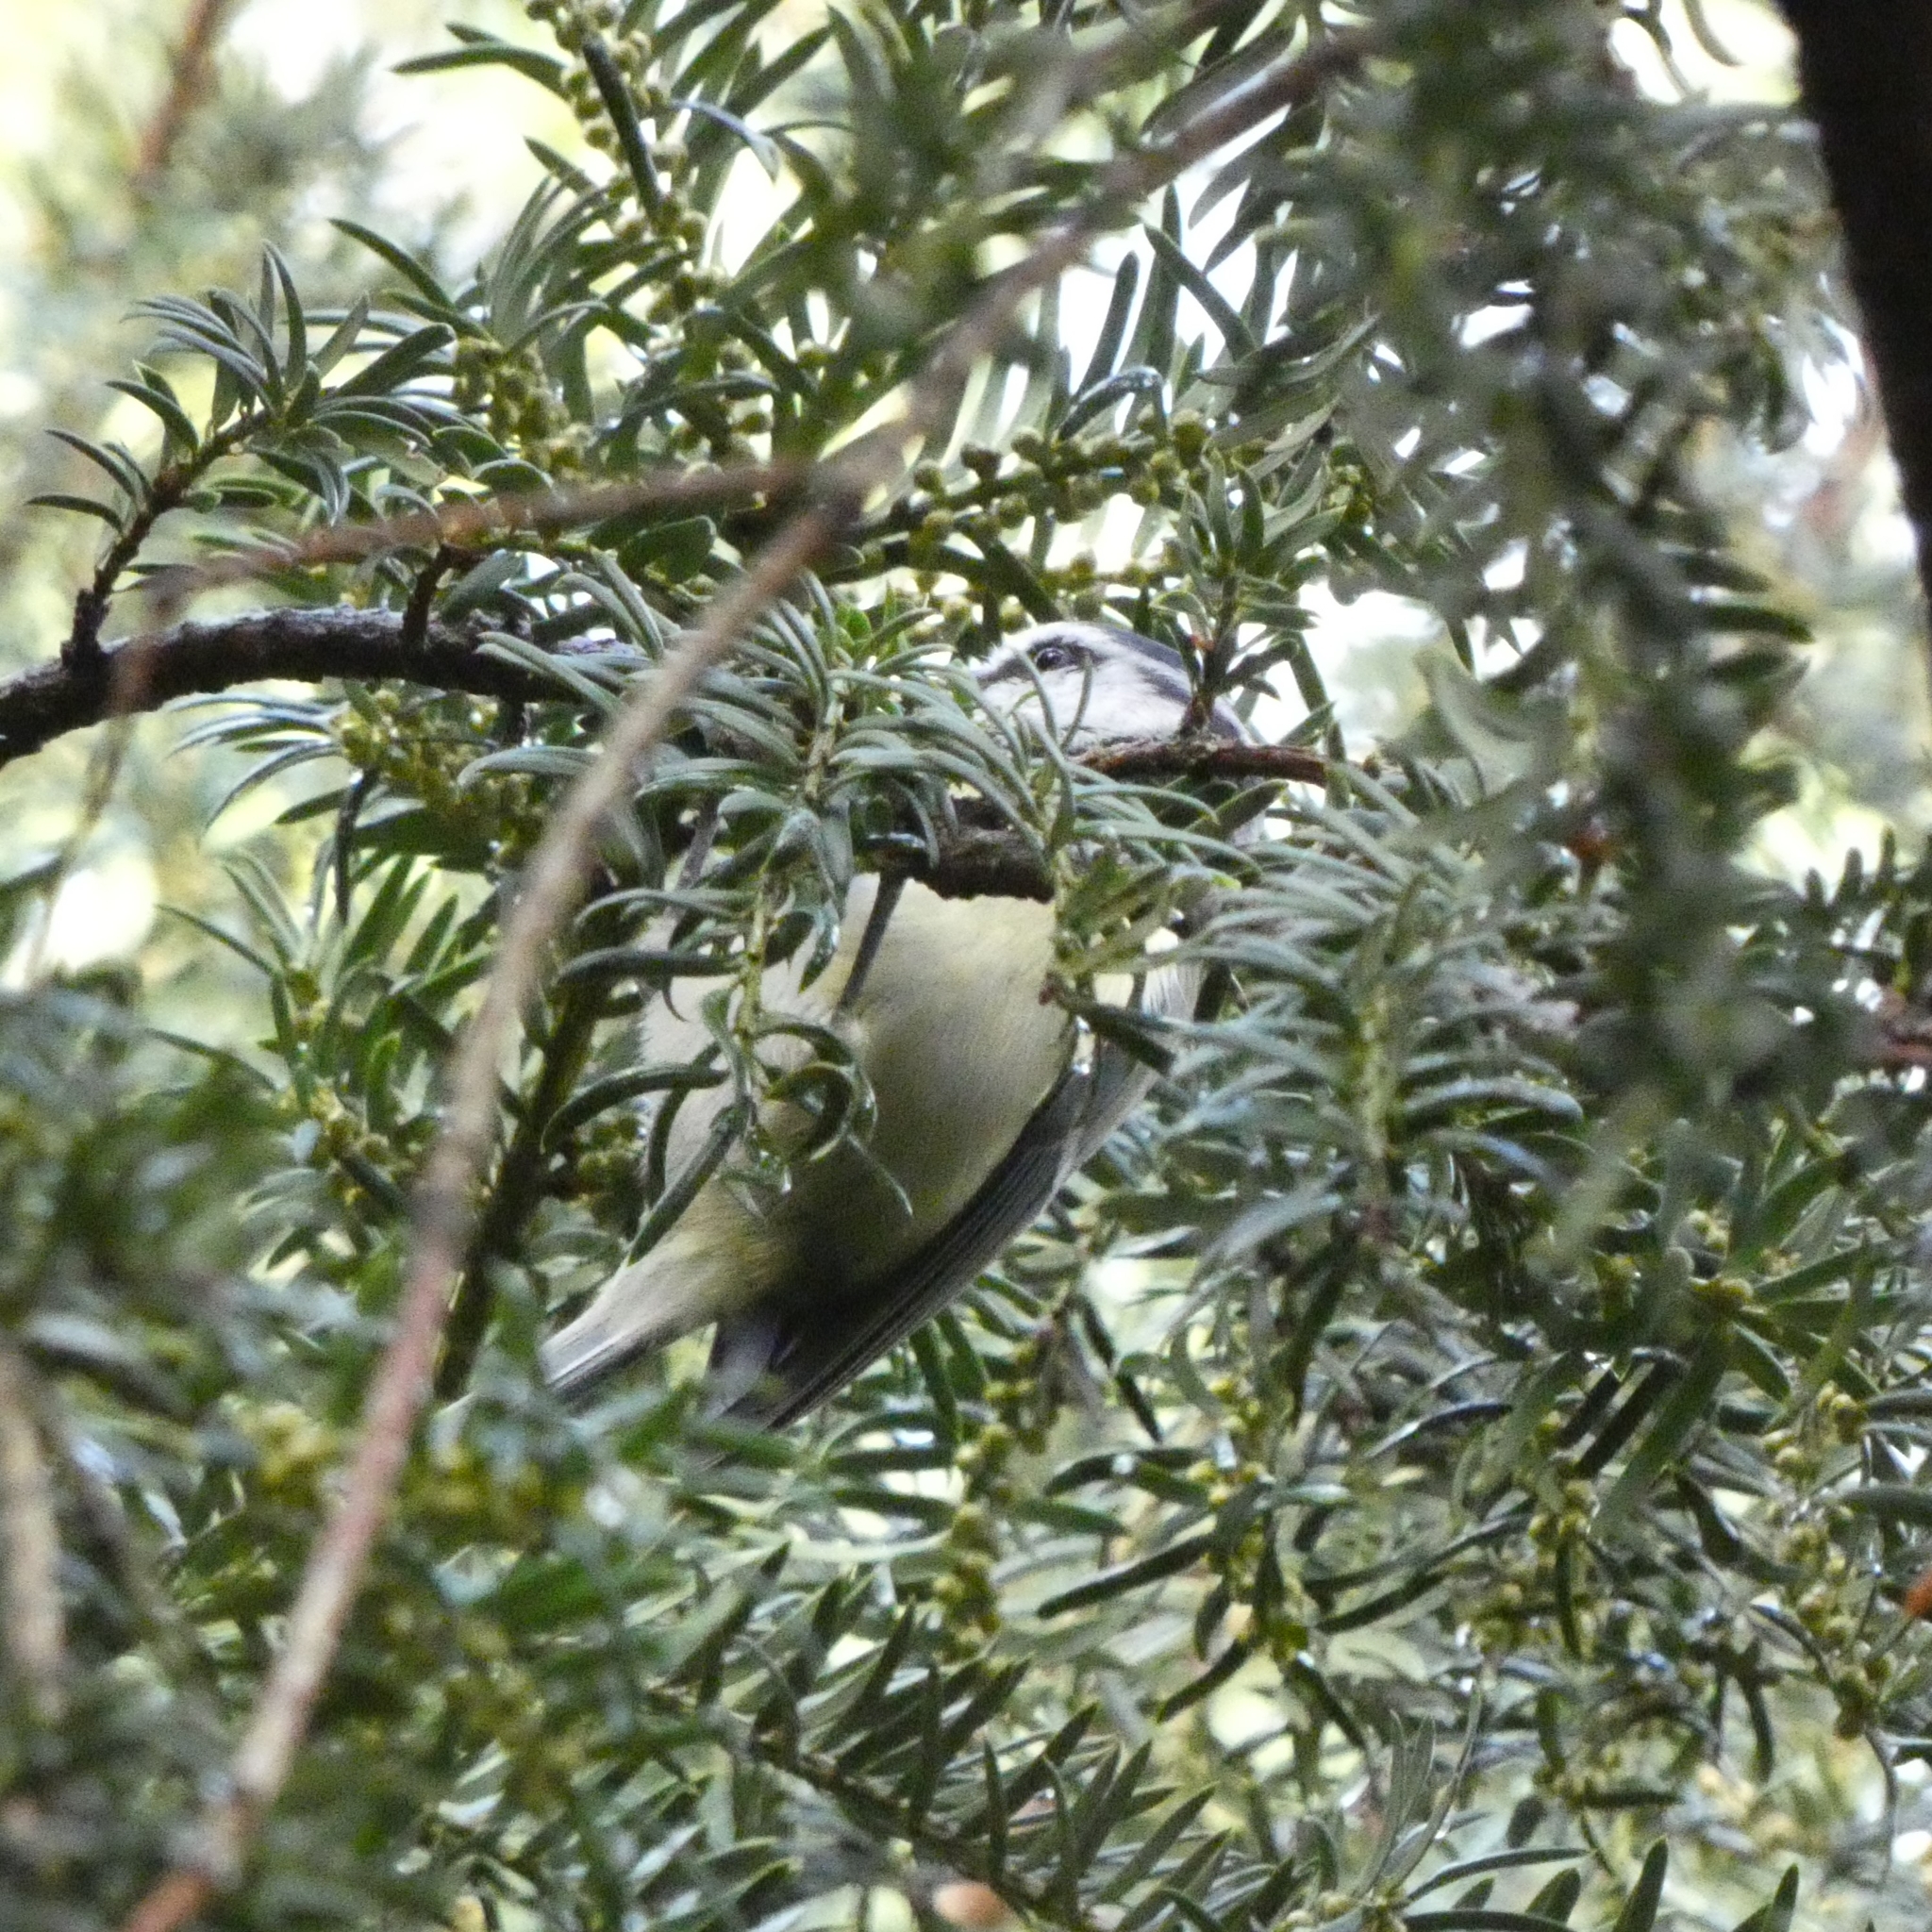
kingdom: Animalia
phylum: Chordata
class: Aves
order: Passeriformes
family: Paridae
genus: Cyanistes
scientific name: Cyanistes caeruleus
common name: Eurasian blue tit
